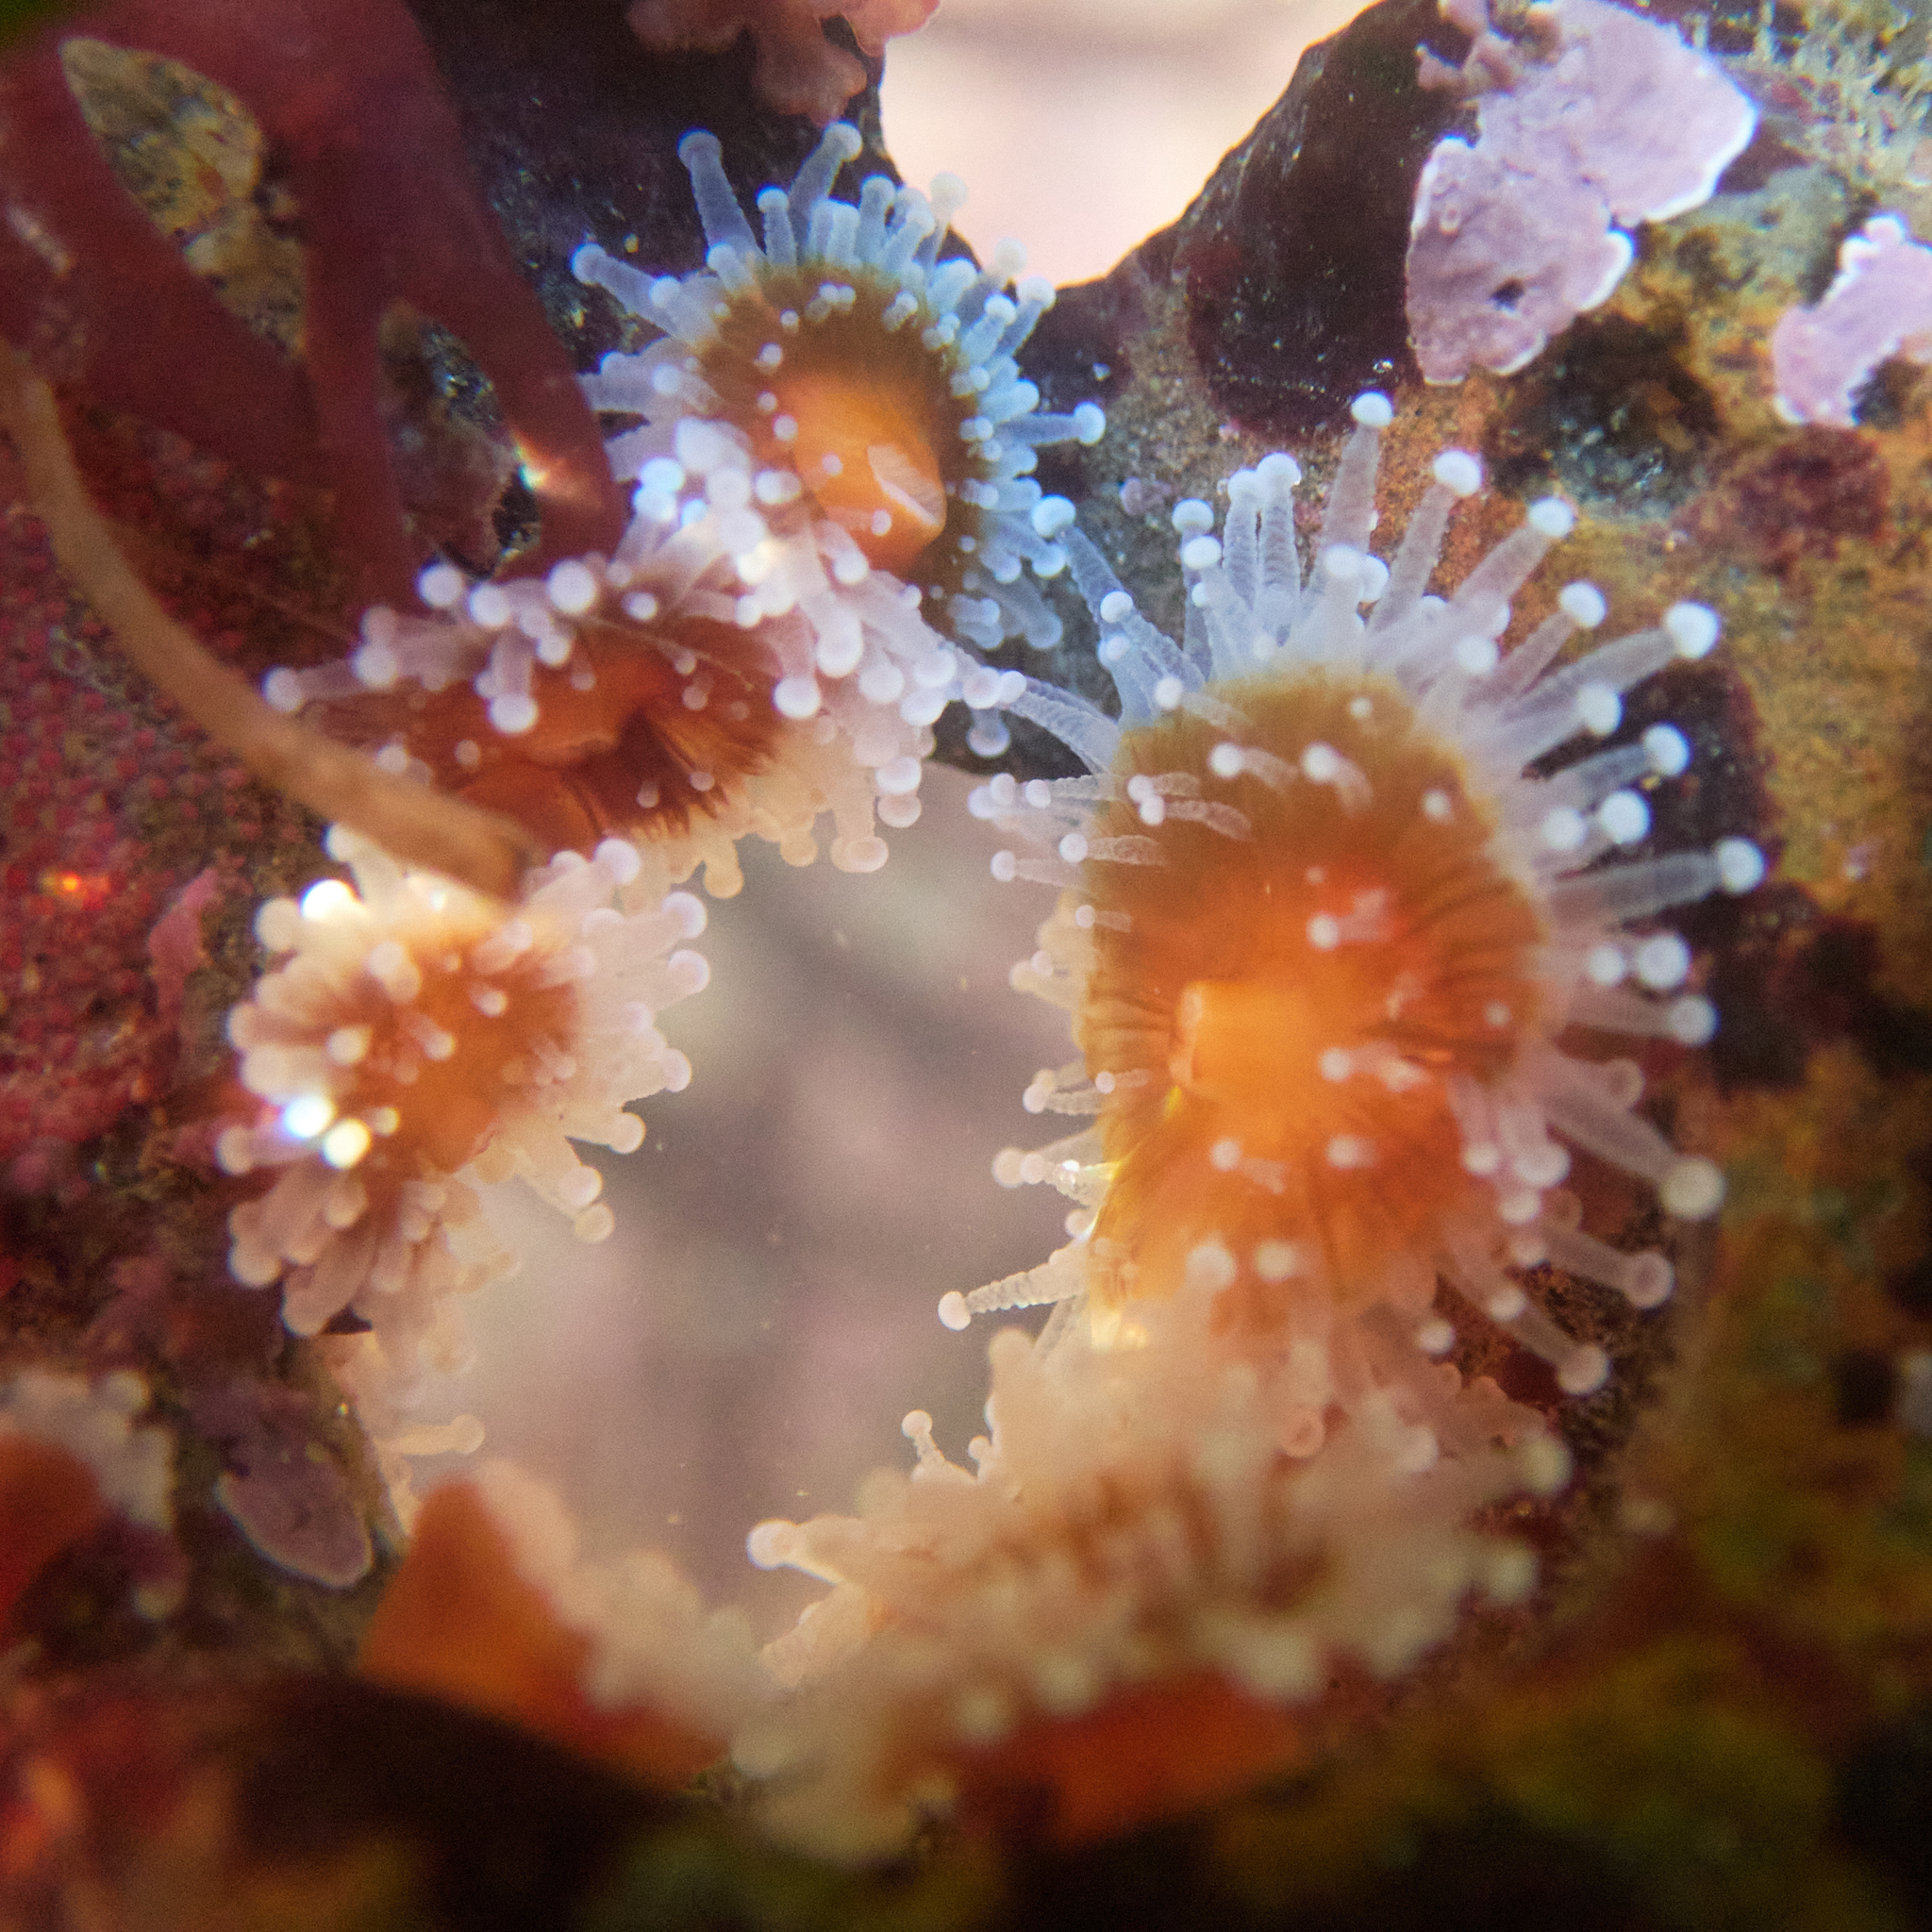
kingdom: Animalia
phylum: Cnidaria
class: Anthozoa
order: Corallimorpharia
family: Corallimorphidae
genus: Corynactis
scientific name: Corynactis californica
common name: Strawberry corallimorpharian
